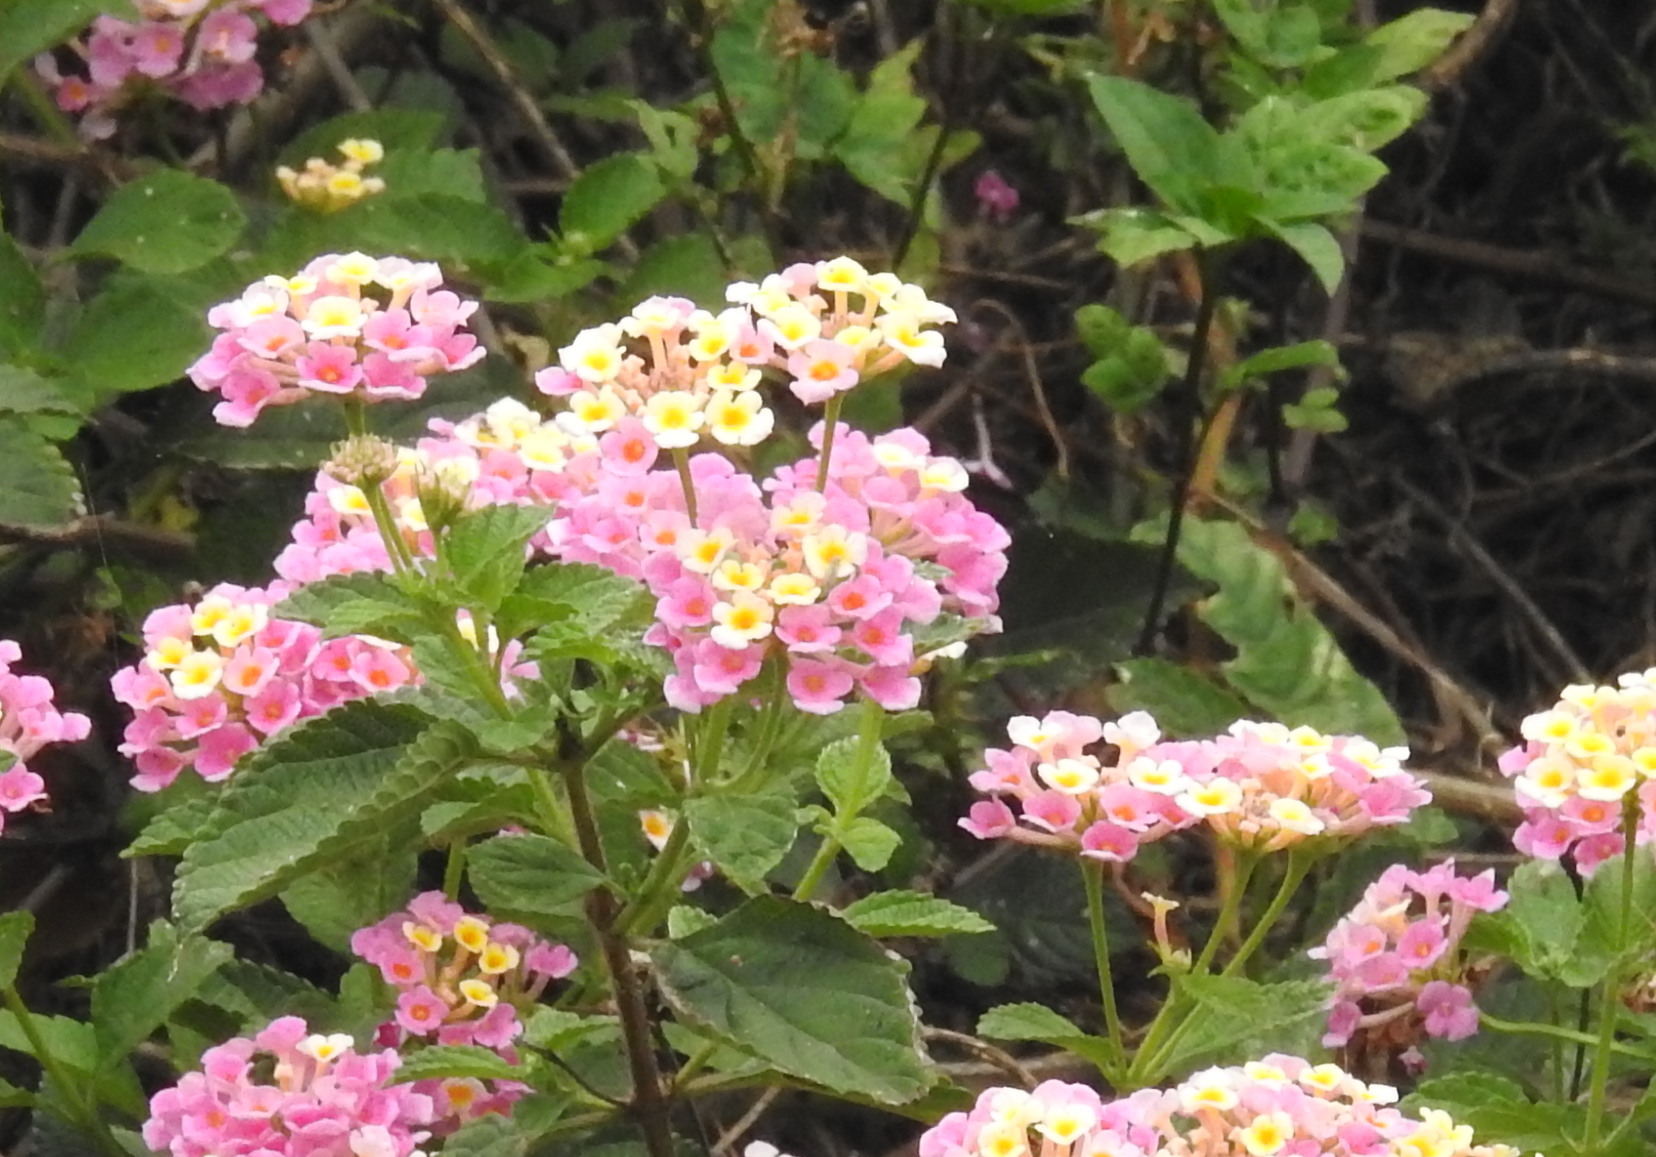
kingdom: Plantae
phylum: Tracheophyta
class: Magnoliopsida
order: Lamiales
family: Verbenaceae
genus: Lantana
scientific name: Lantana camara
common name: Lantana
